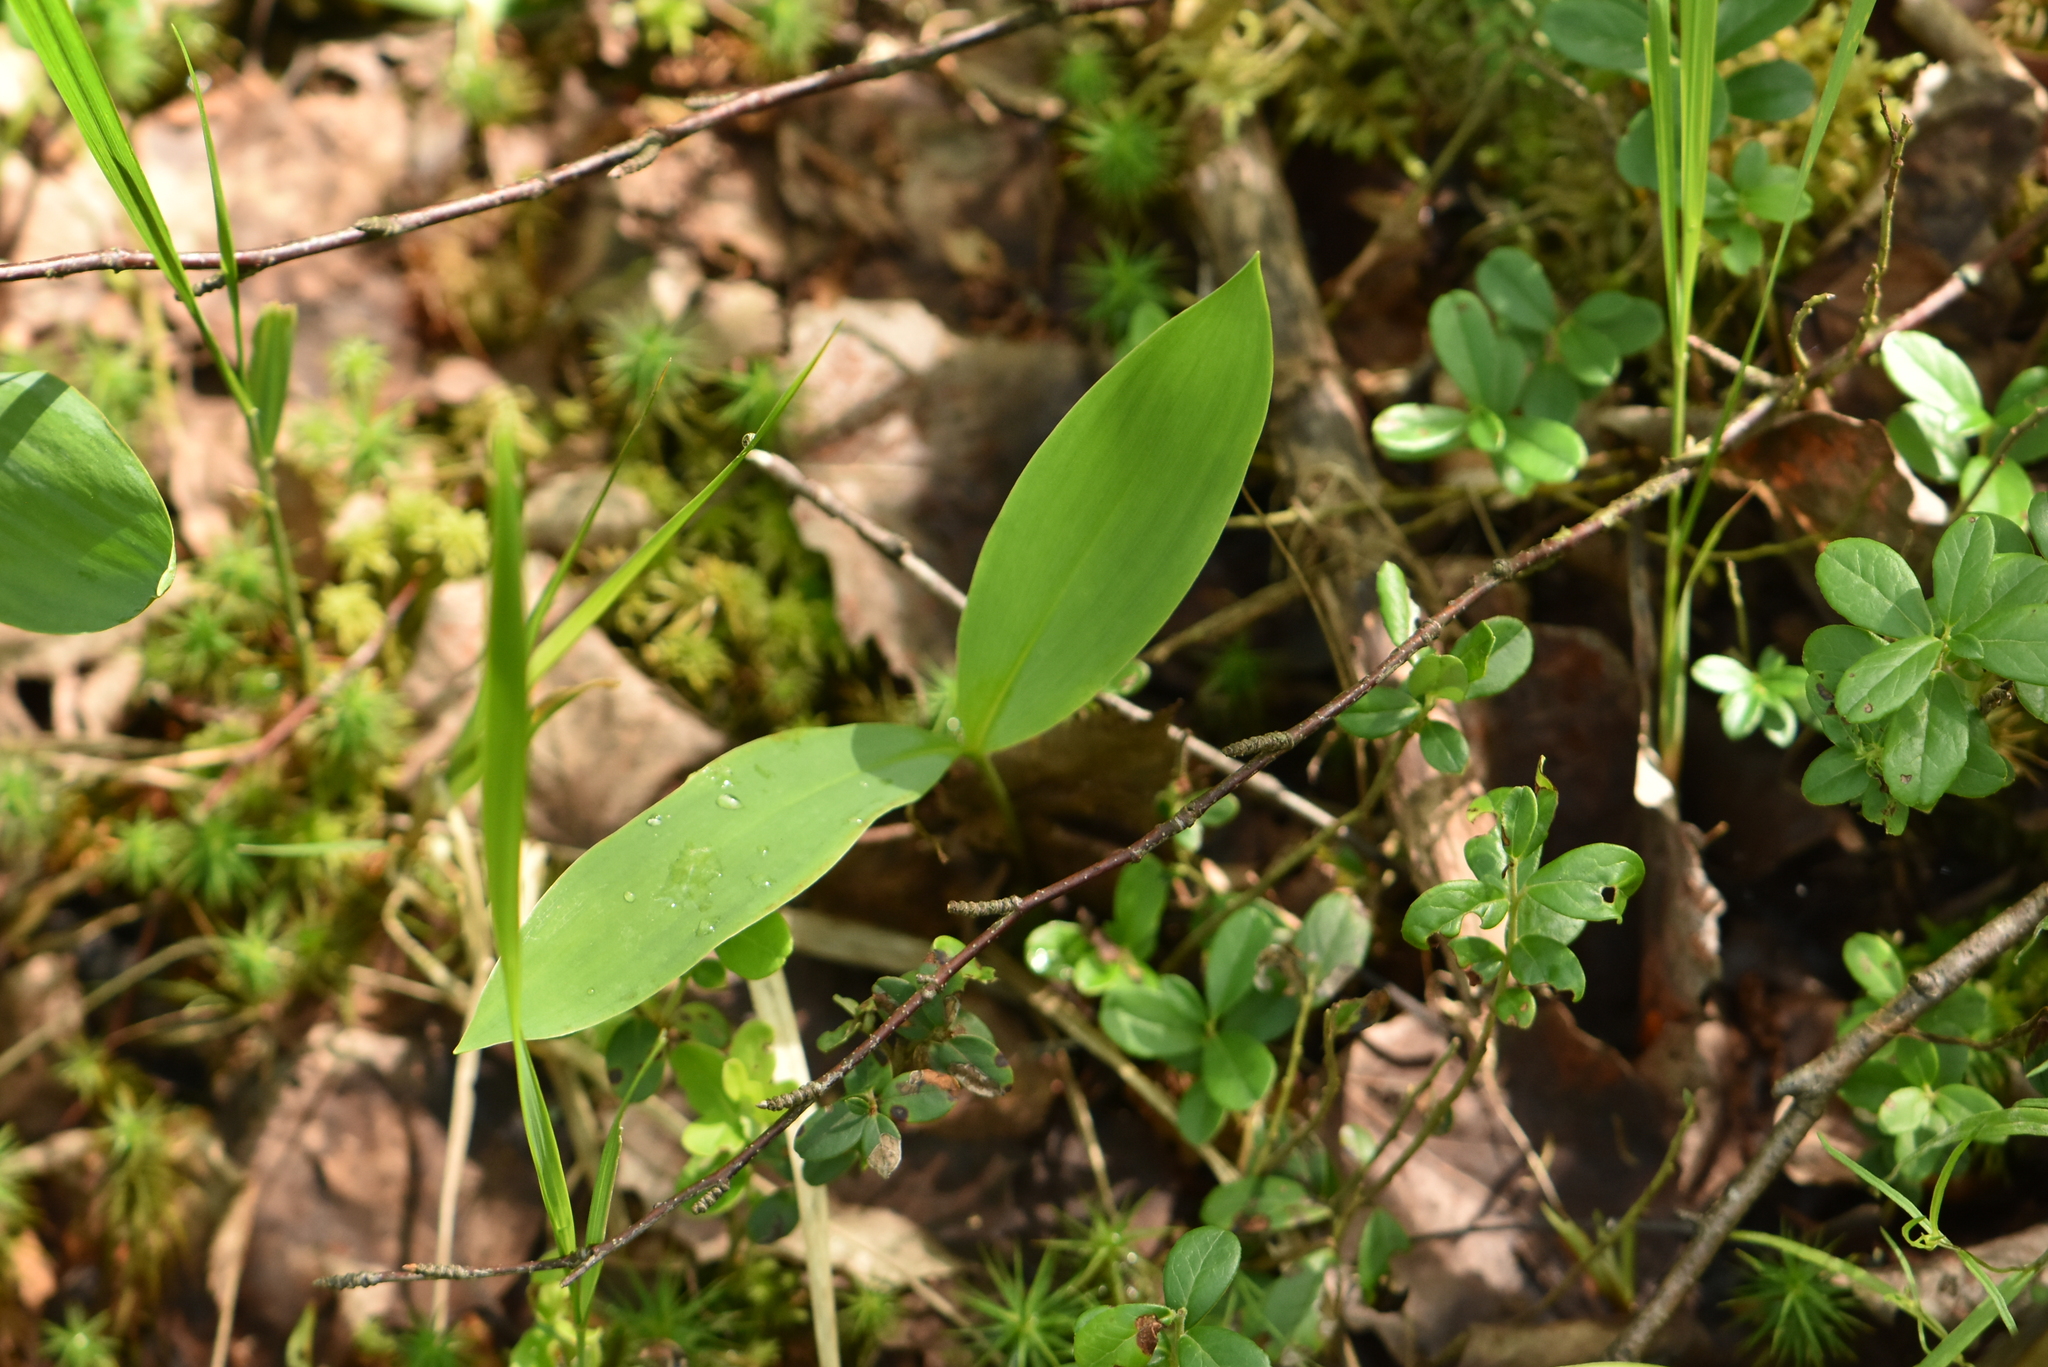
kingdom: Plantae
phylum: Tracheophyta
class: Liliopsida
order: Asparagales
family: Asparagaceae
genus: Convallaria
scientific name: Convallaria majalis
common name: Lily-of-the-valley
